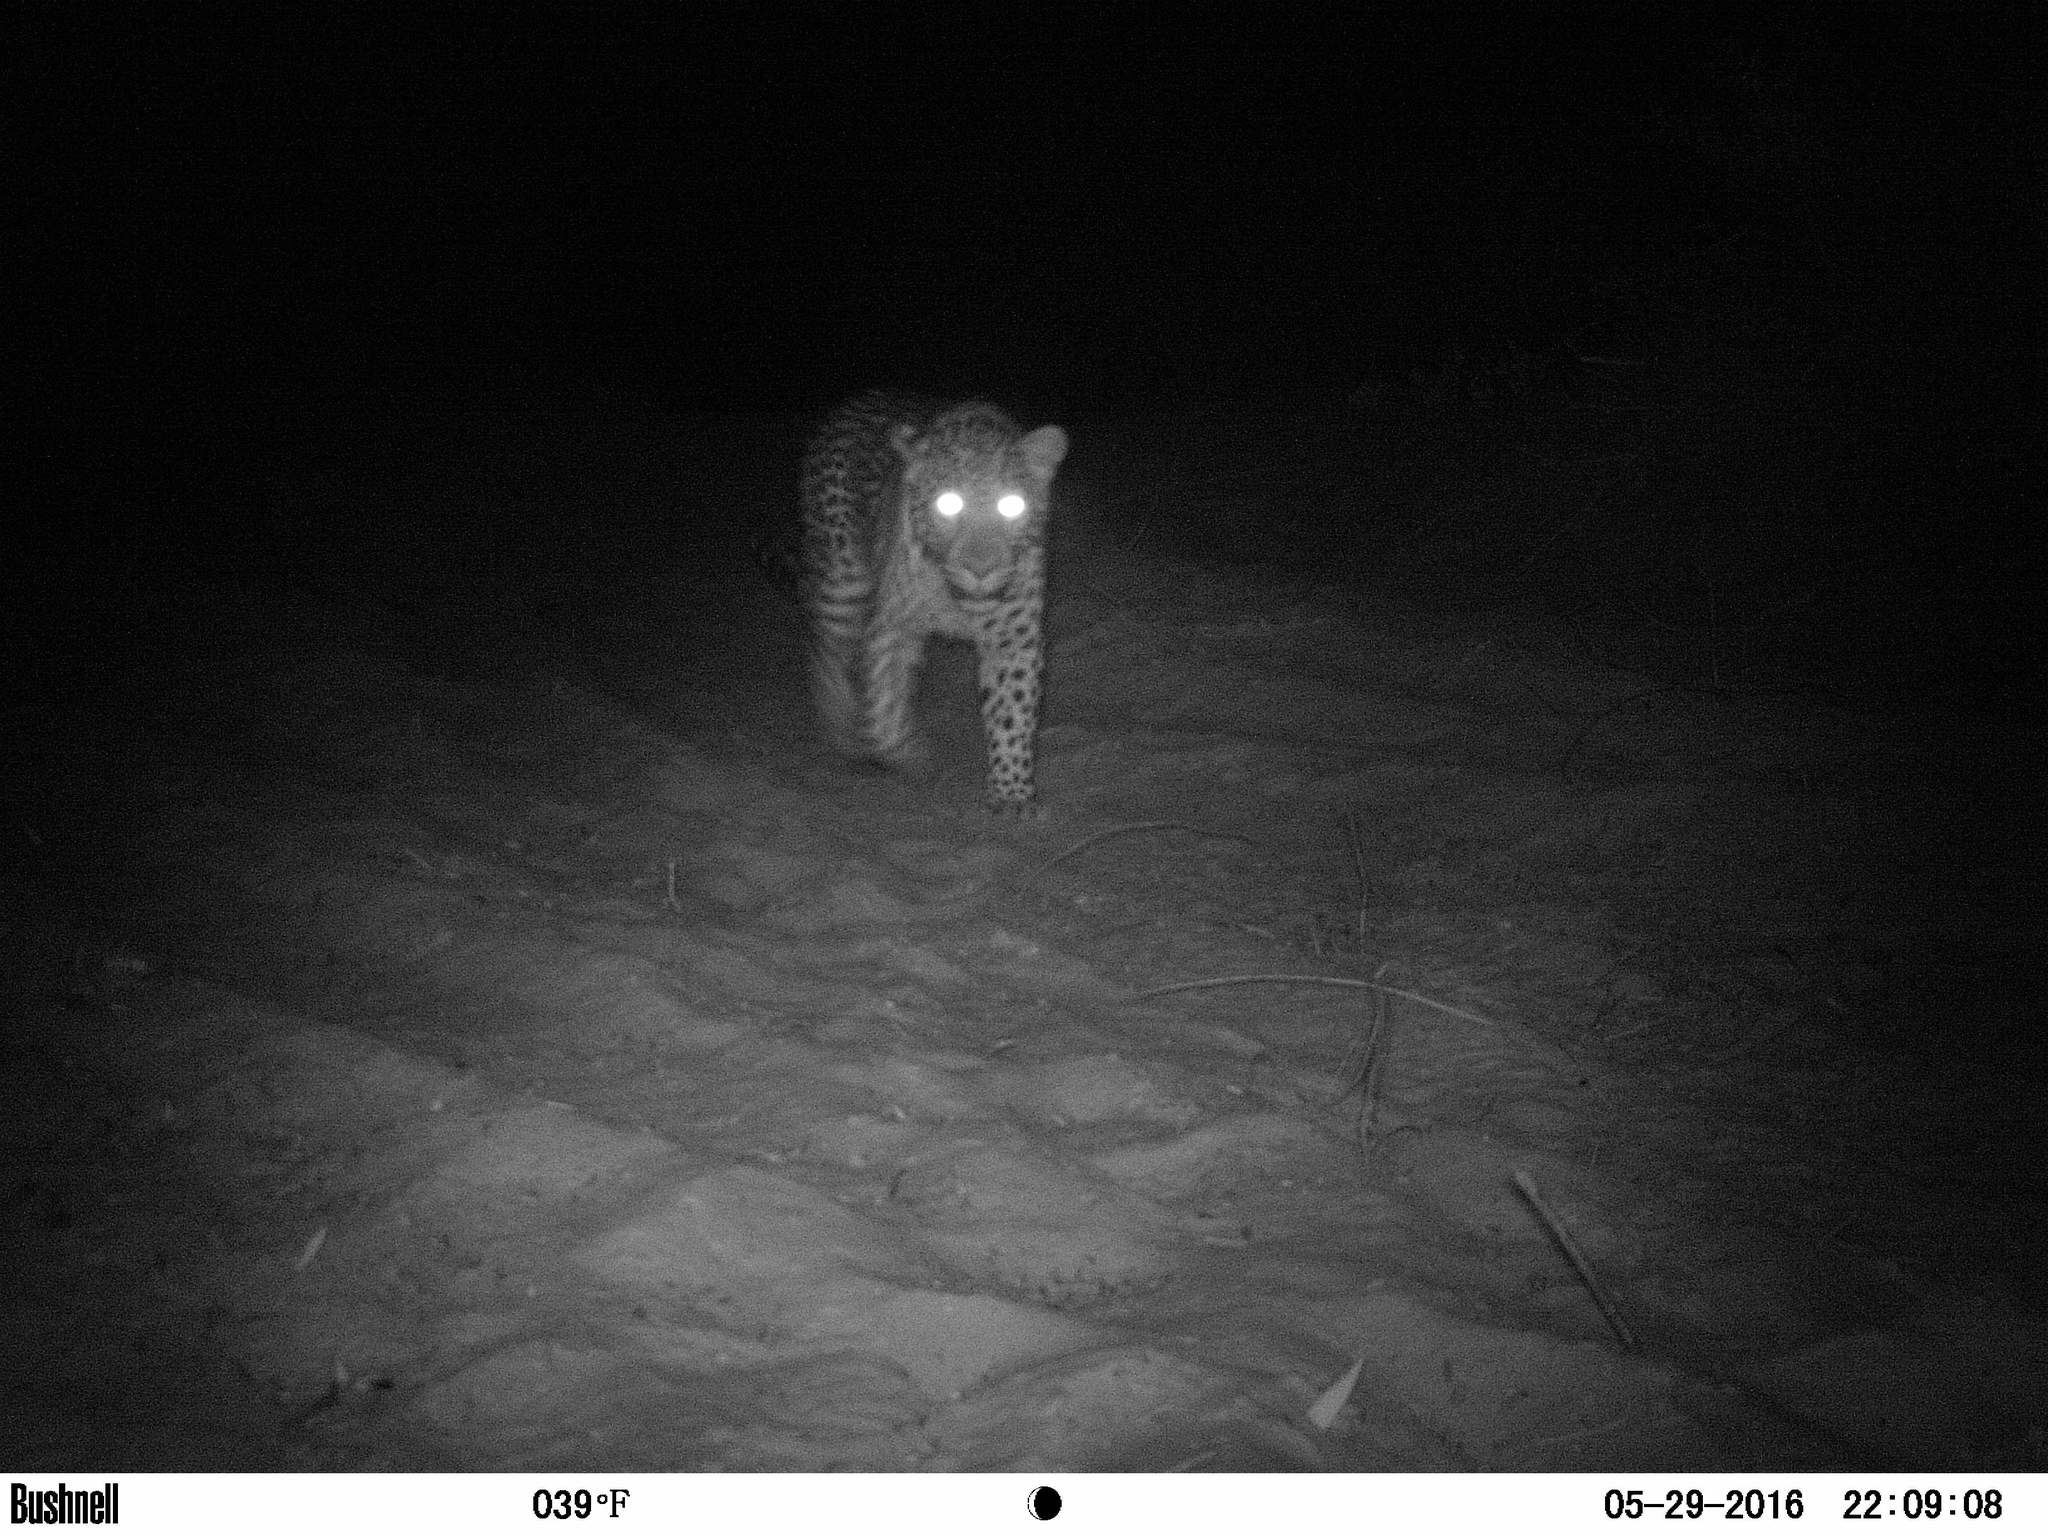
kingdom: Animalia
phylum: Chordata
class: Mammalia
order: Carnivora
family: Felidae
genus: Panthera
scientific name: Panthera pardus
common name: Leopard
